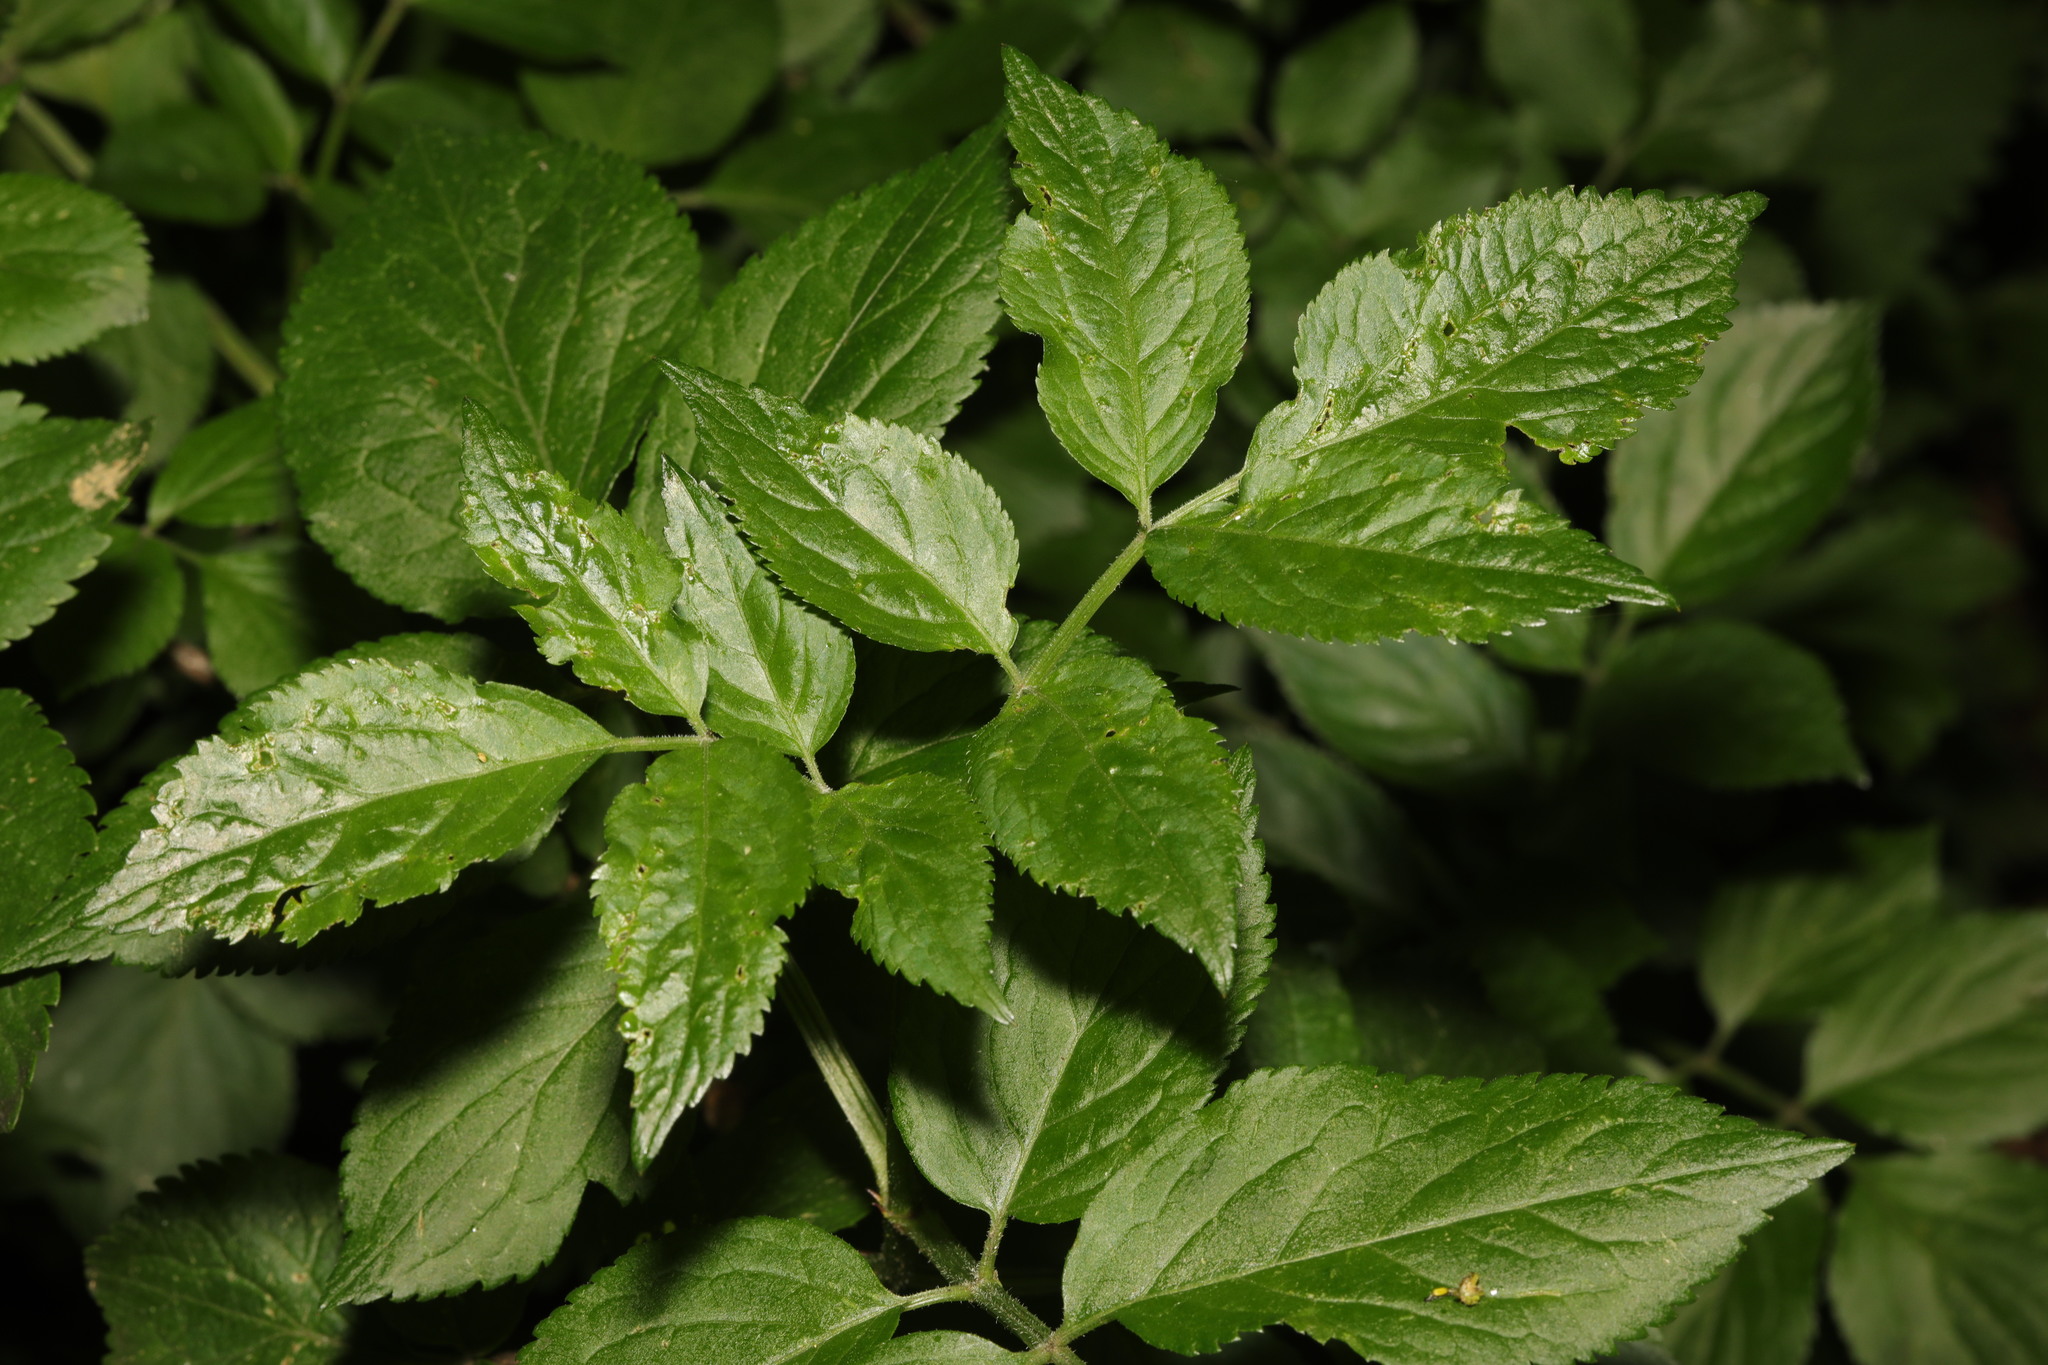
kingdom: Plantae
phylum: Tracheophyta
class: Magnoliopsida
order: Dipsacales
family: Viburnaceae
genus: Sambucus
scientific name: Sambucus nigra
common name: Elder
